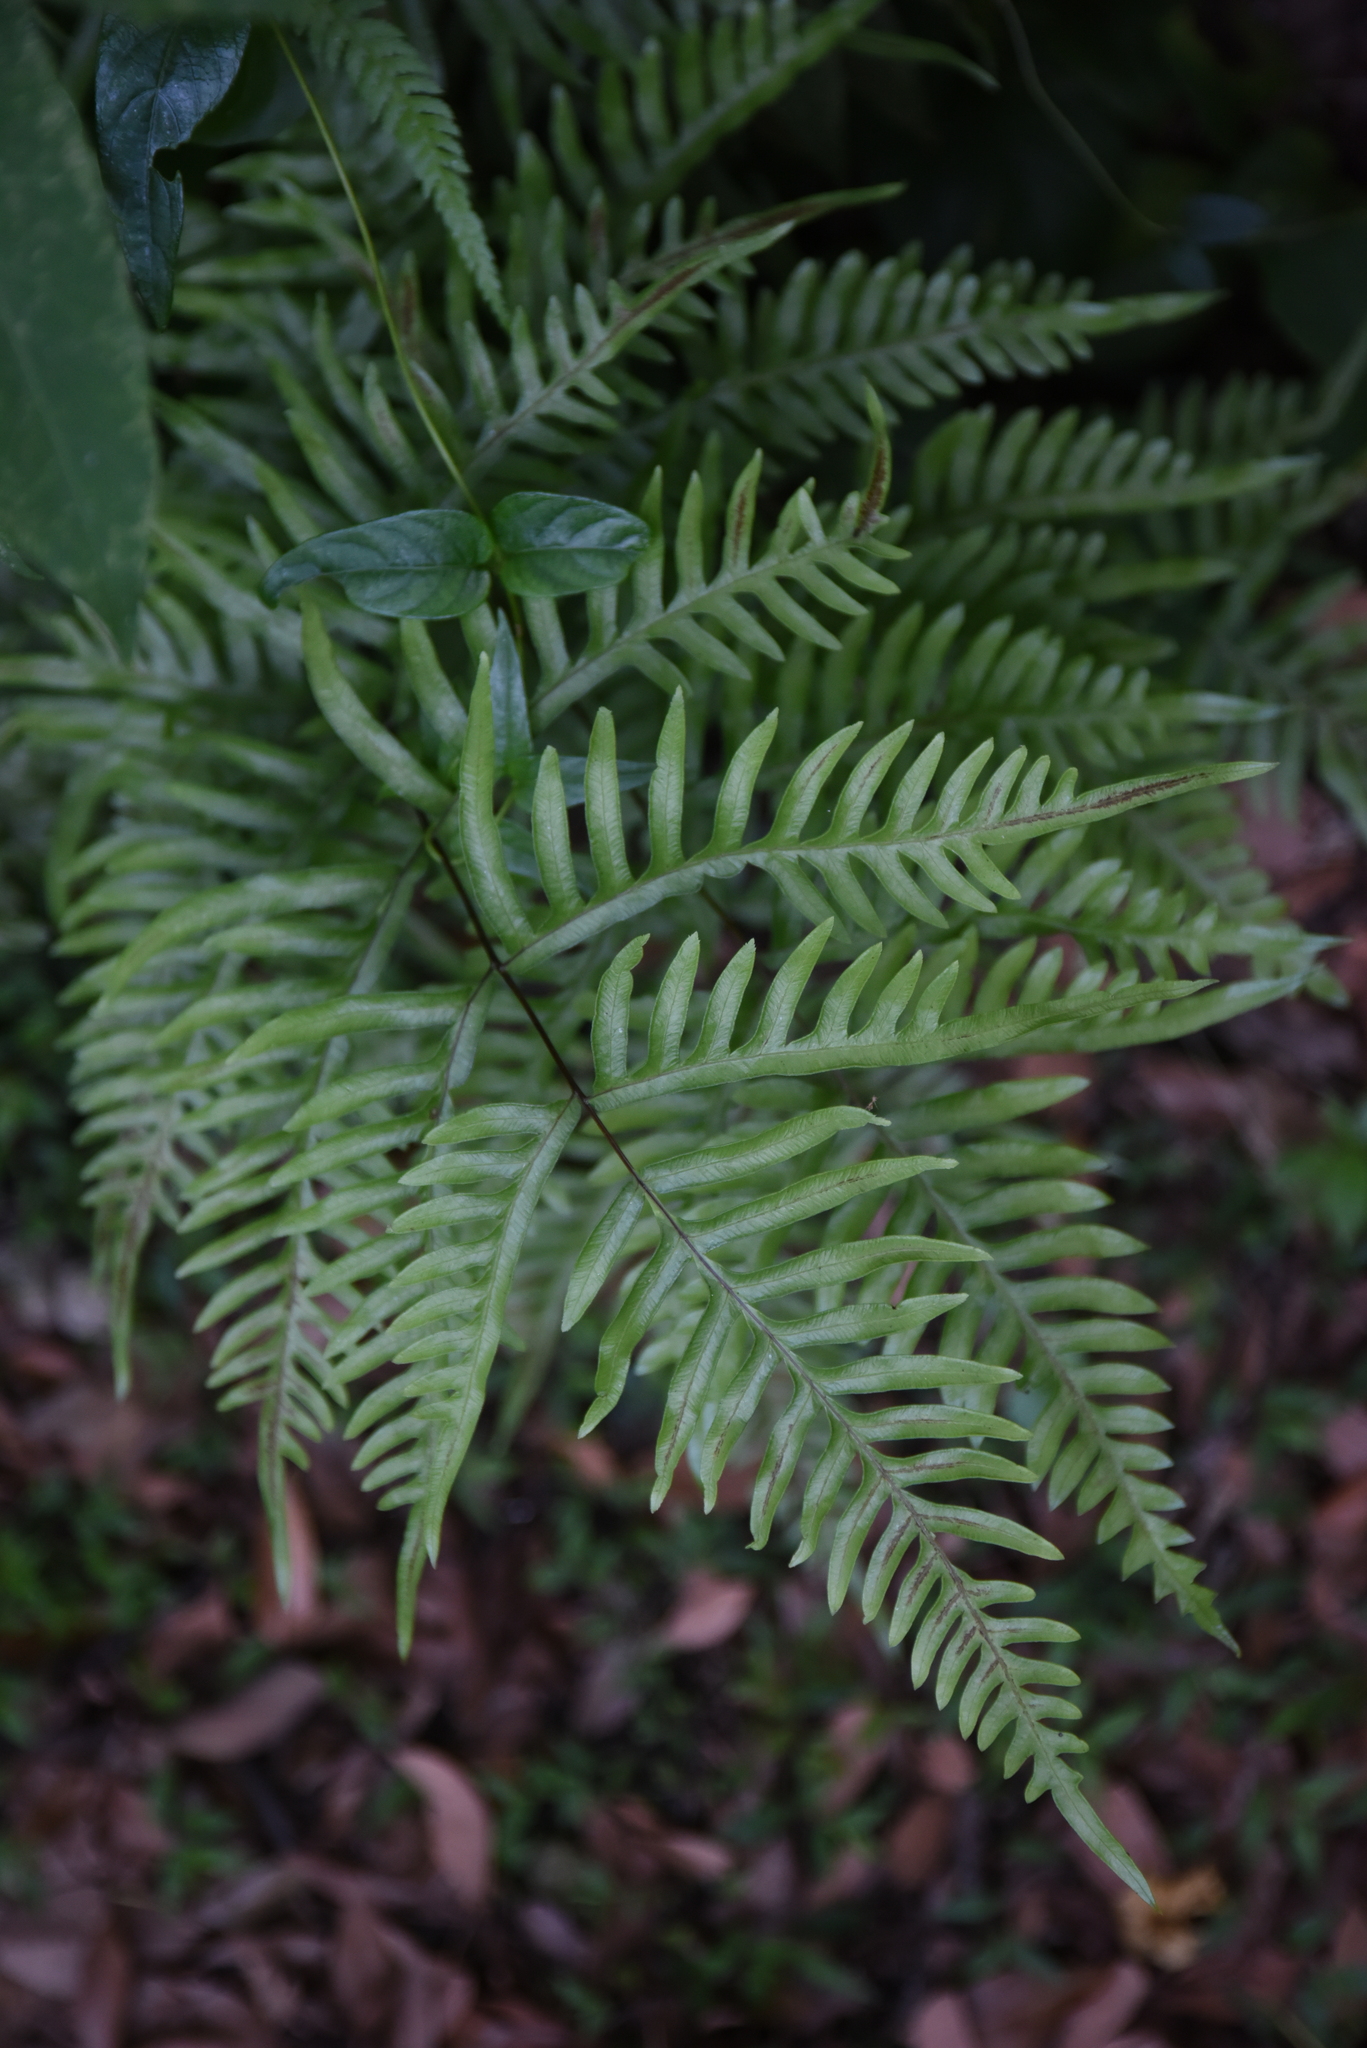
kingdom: Plantae
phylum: Tracheophyta
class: Polypodiopsida
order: Polypodiales
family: Pteridaceae
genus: Pteris
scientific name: Pteris dispar
